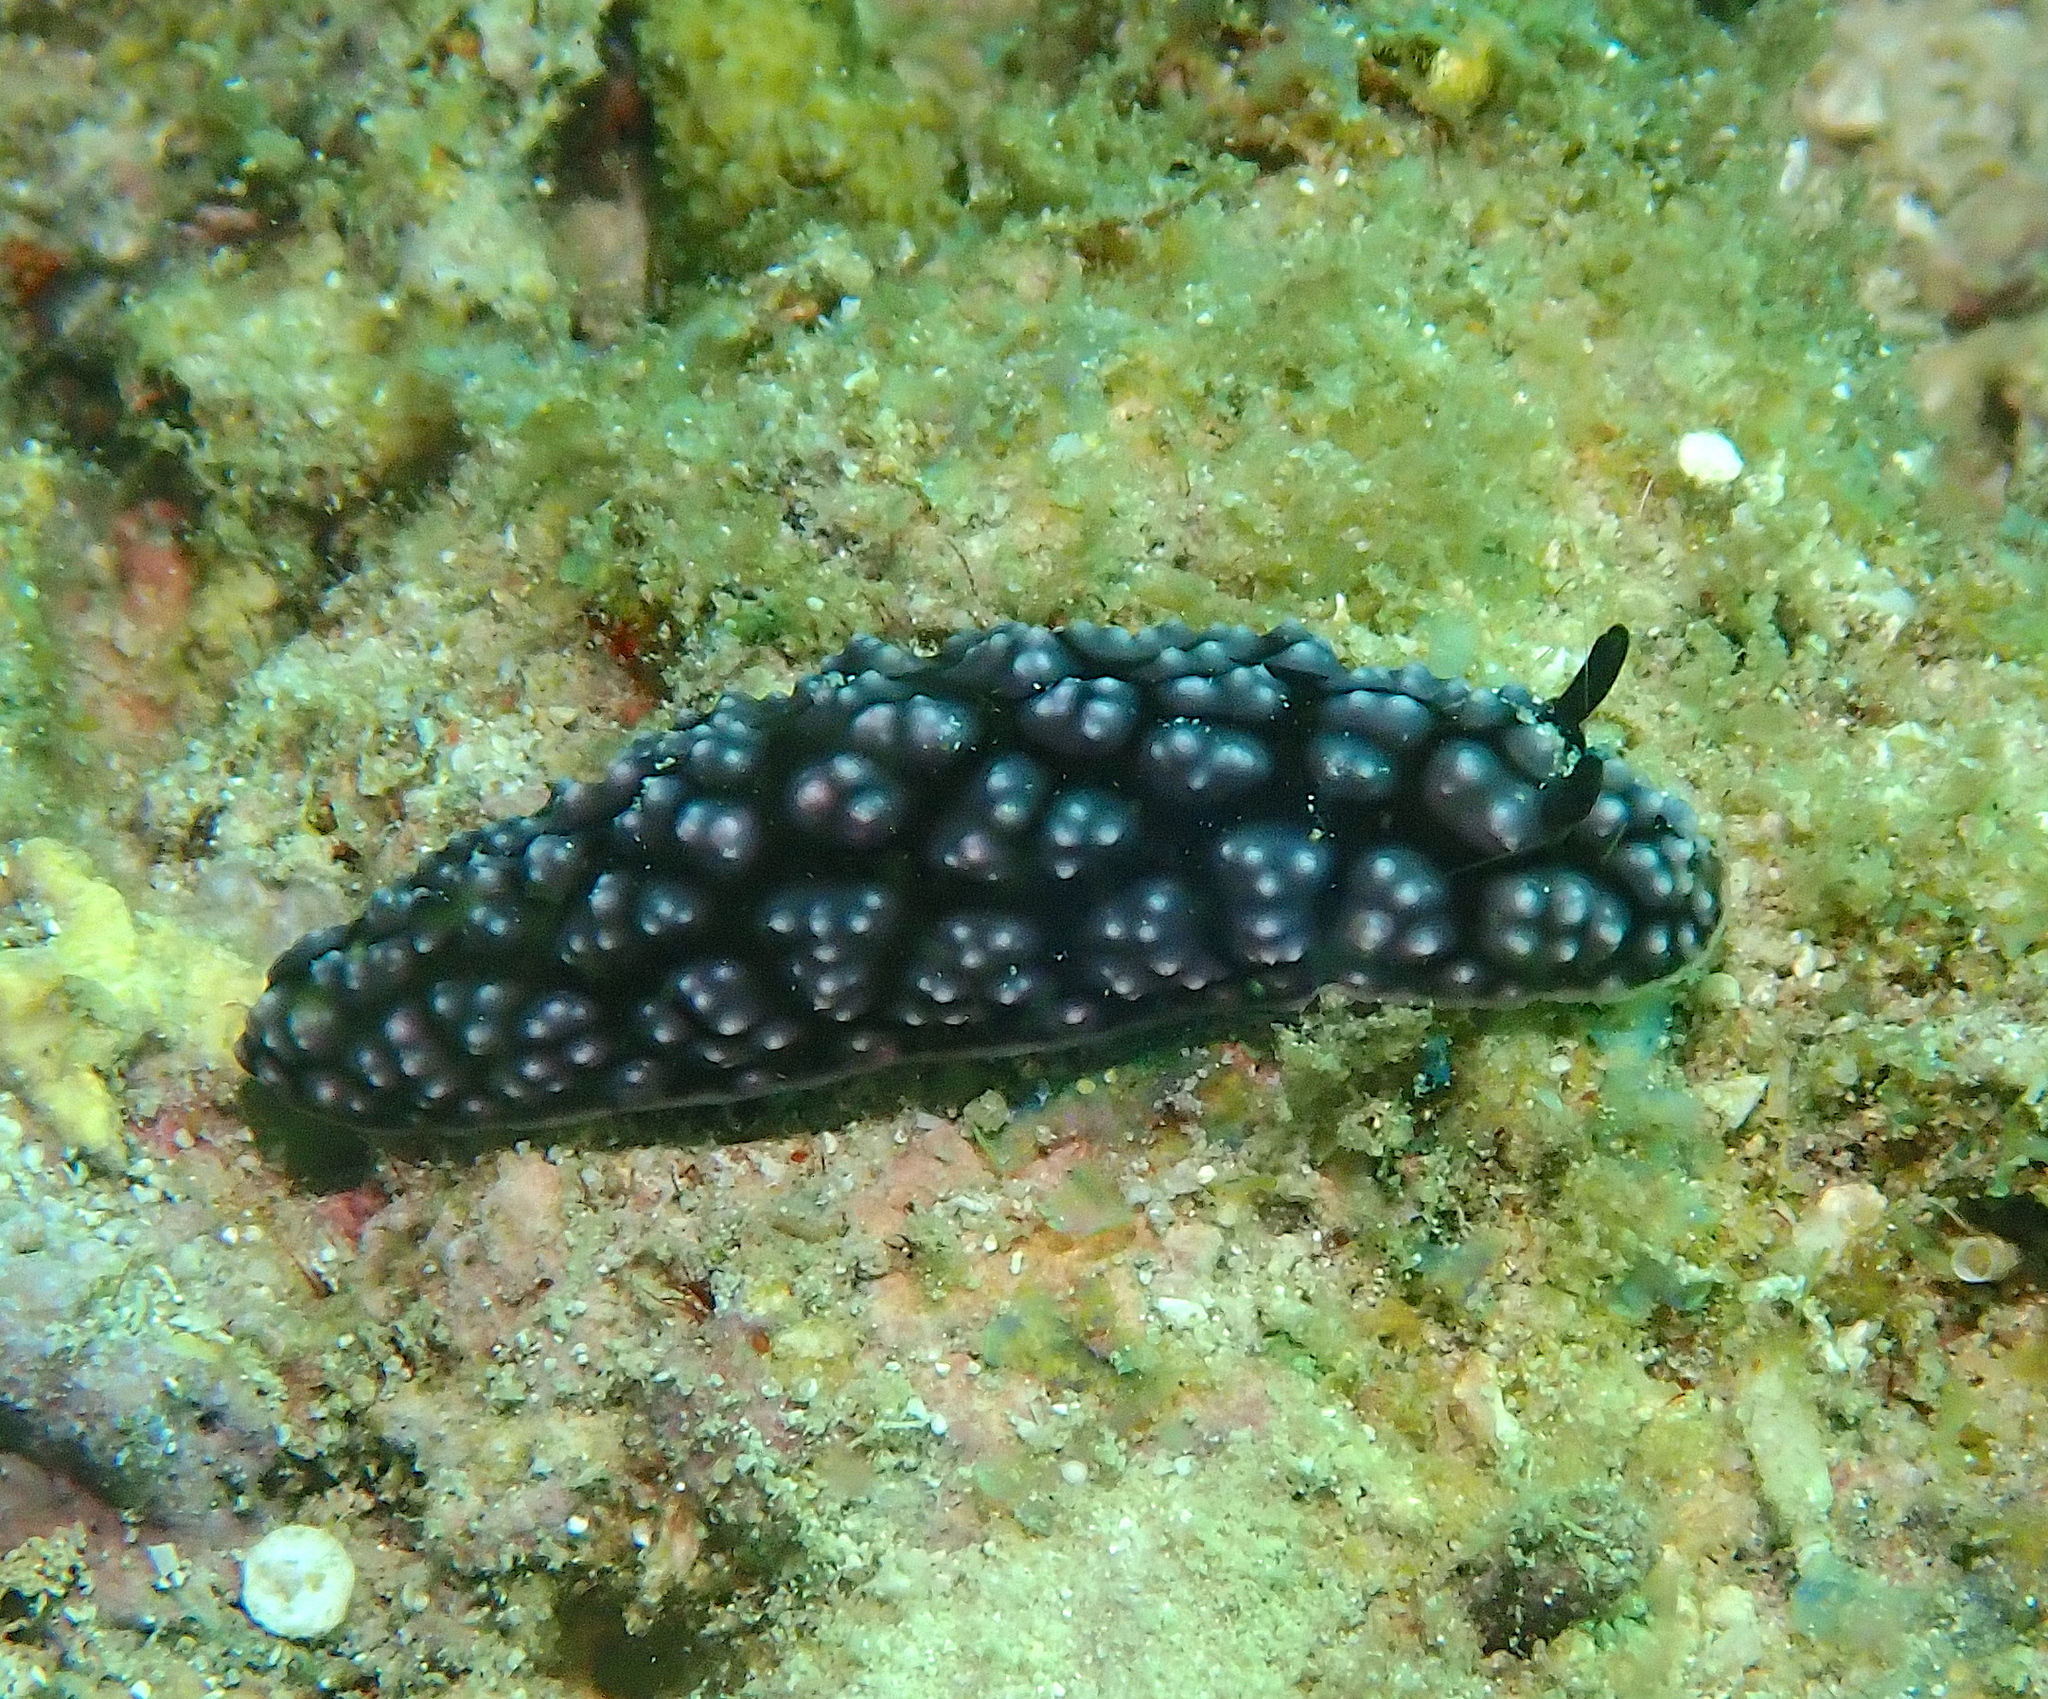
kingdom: Animalia
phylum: Mollusca
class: Gastropoda
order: Nudibranchia
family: Phyllidiidae
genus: Phyllidiella
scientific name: Phyllidiella pustulosa
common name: Pustular phyllidia
